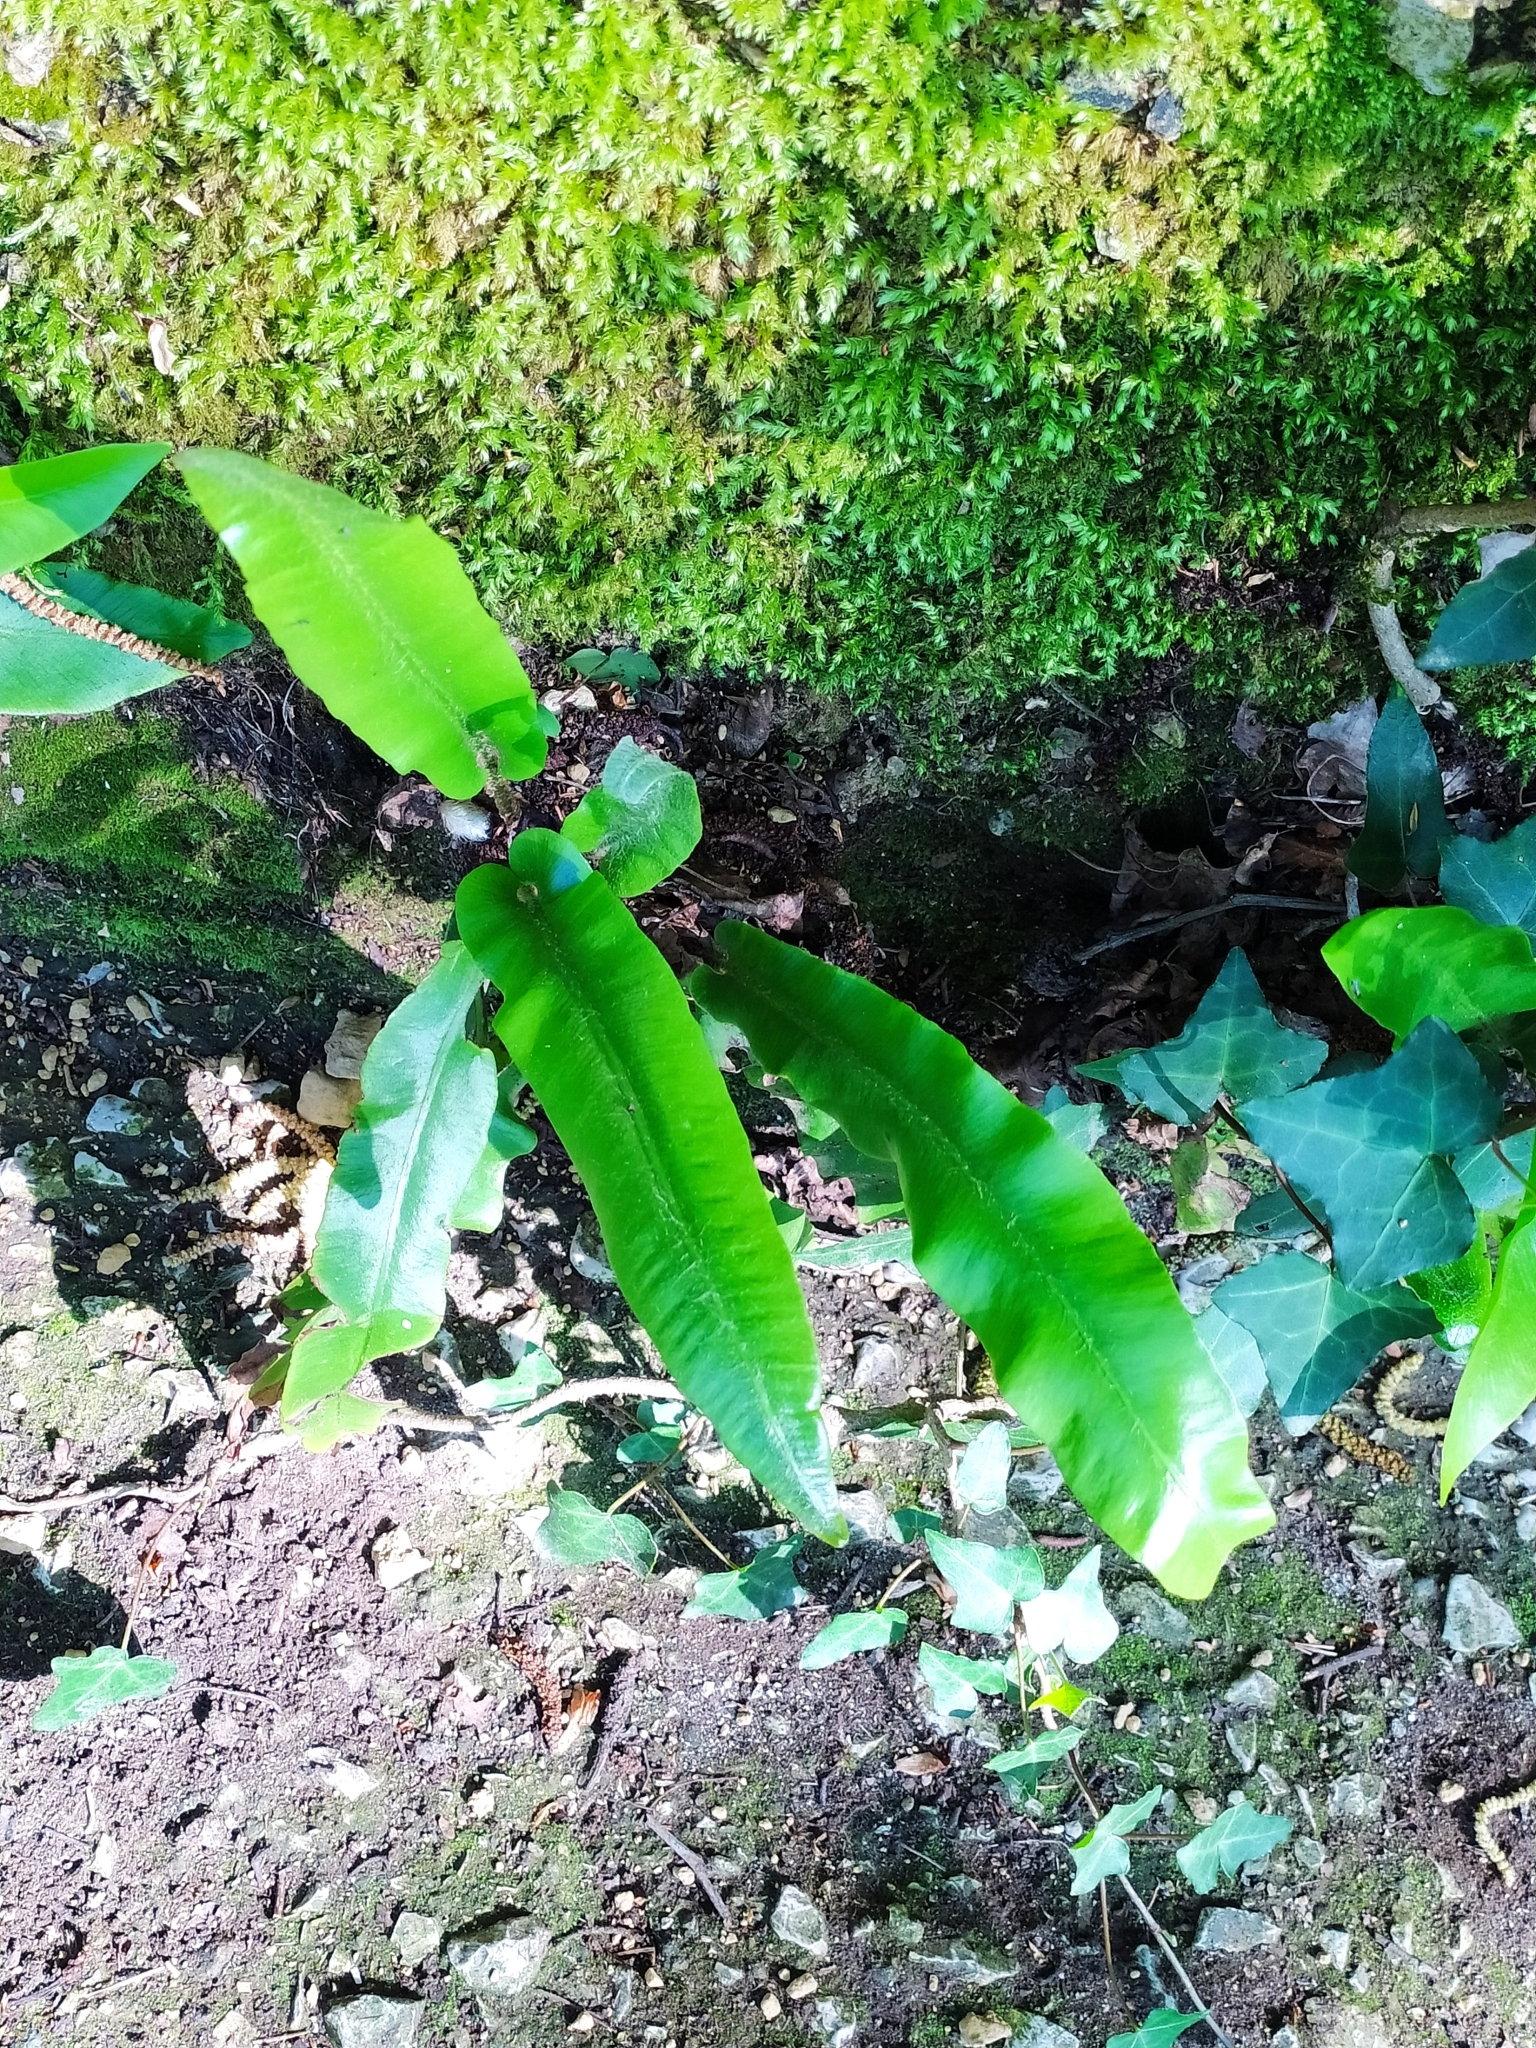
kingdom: Plantae
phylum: Tracheophyta
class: Polypodiopsida
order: Polypodiales
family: Aspleniaceae
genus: Asplenium
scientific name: Asplenium scolopendrium
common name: Hart's-tongue fern
